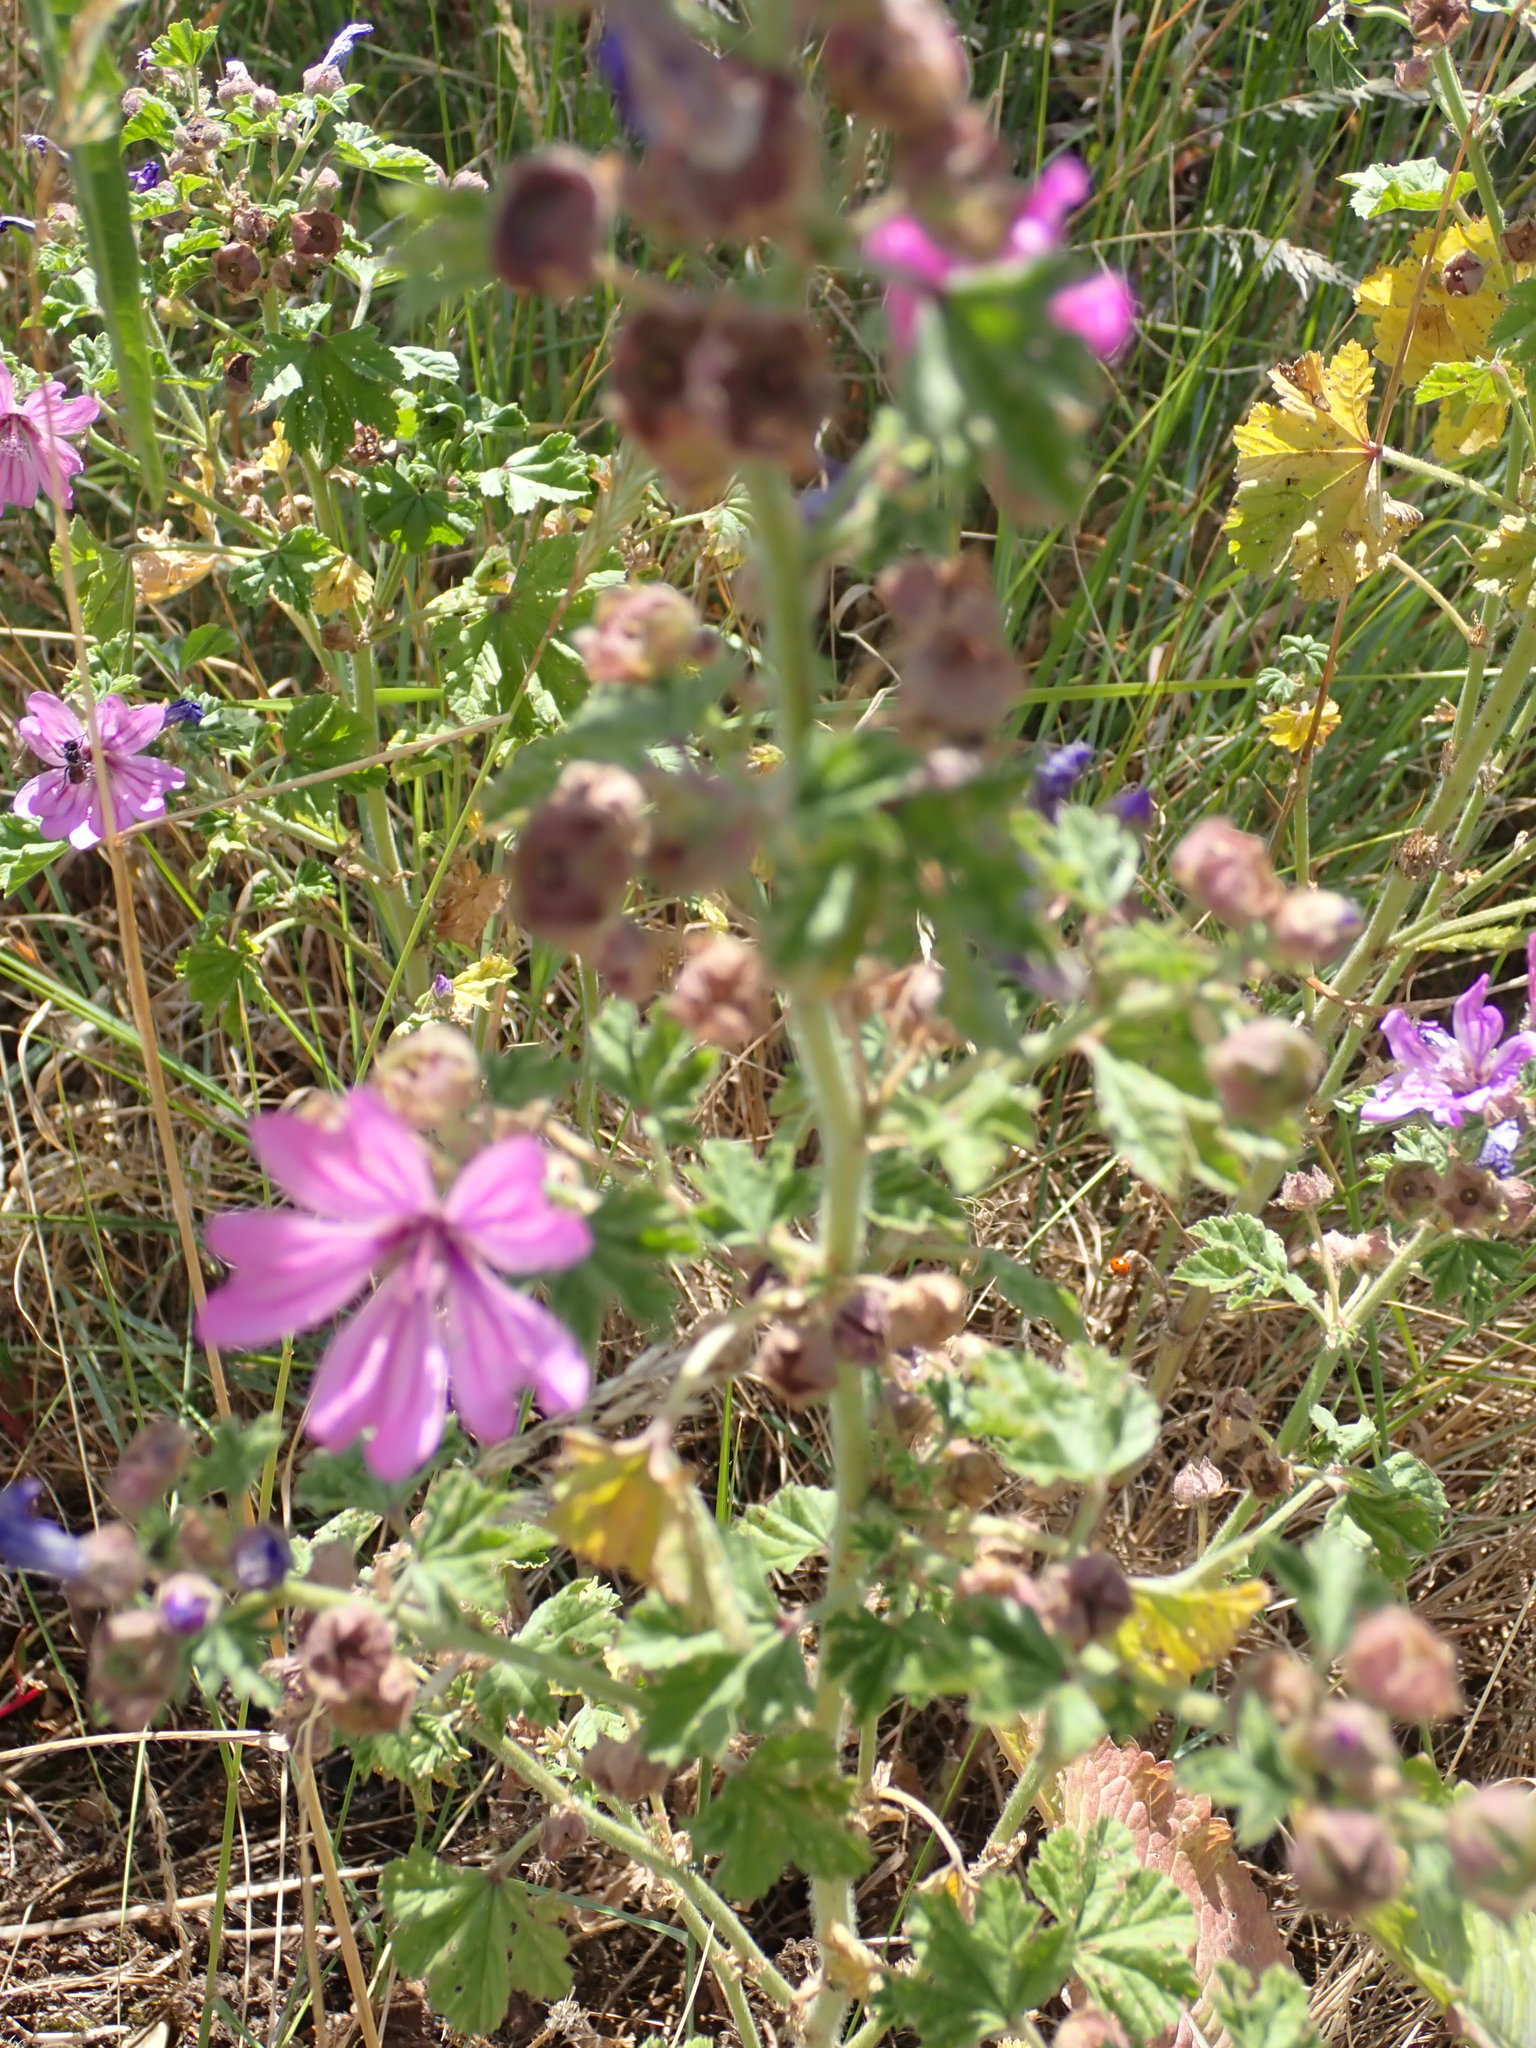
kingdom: Plantae
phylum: Tracheophyta
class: Magnoliopsida
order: Malvales
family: Malvaceae
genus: Malva
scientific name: Malva sylvestris
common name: Common mallow
